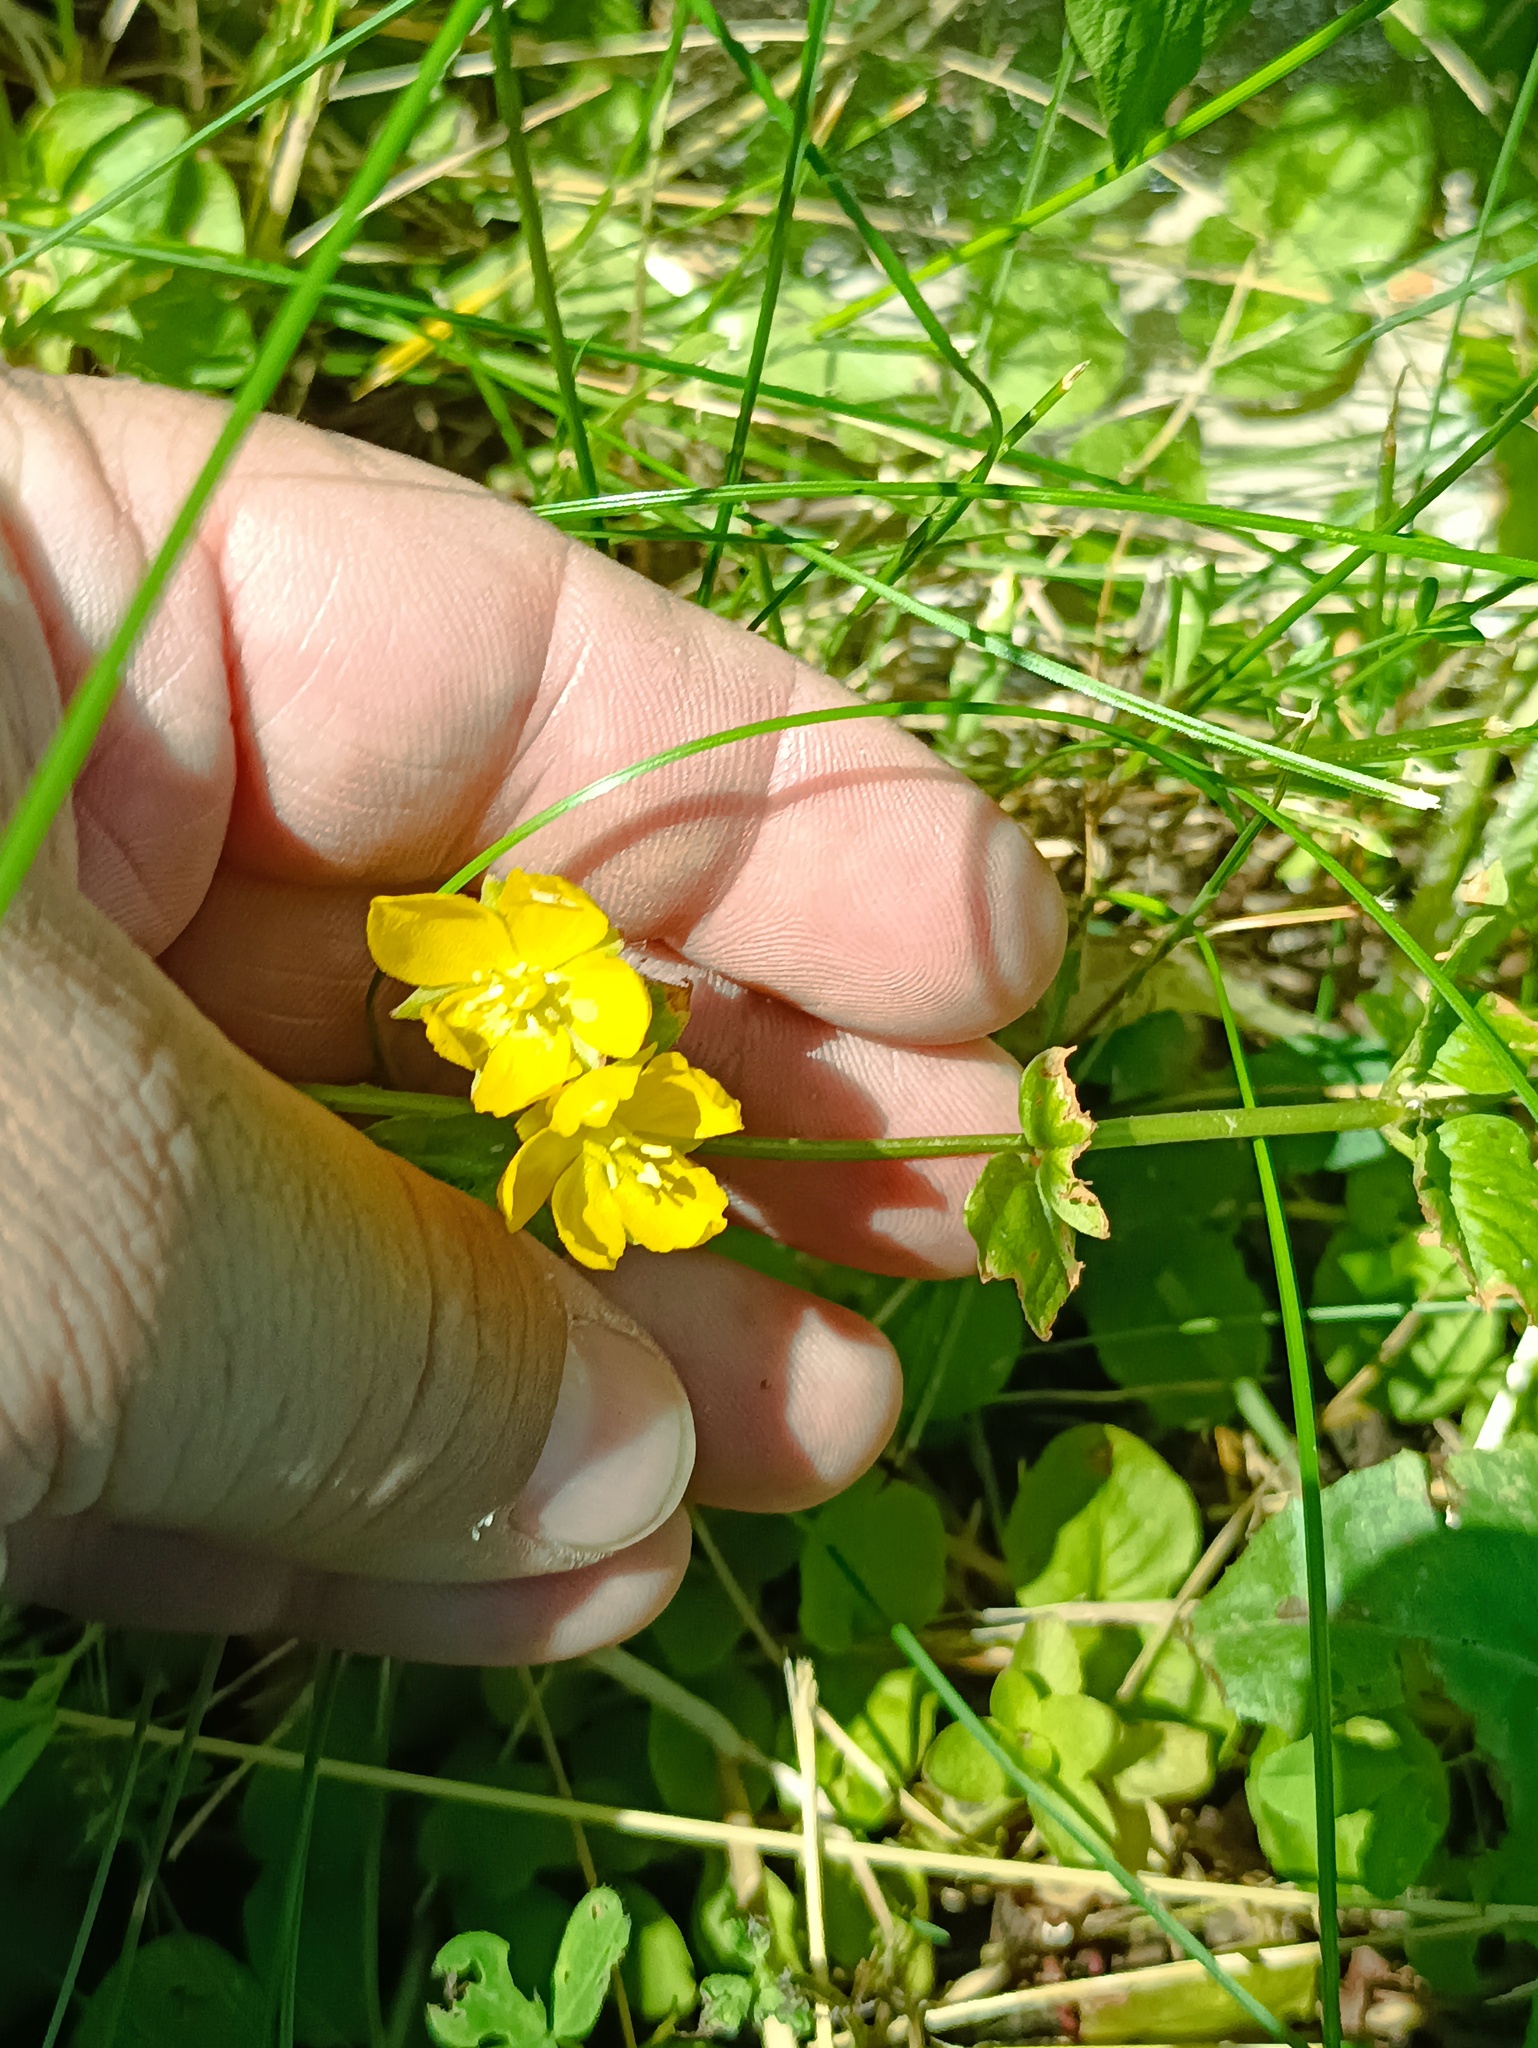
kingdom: Plantae
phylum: Tracheophyta
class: Magnoliopsida
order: Ericales
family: Primulaceae
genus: Lysimachia
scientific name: Lysimachia nummularia
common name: Moneywort
